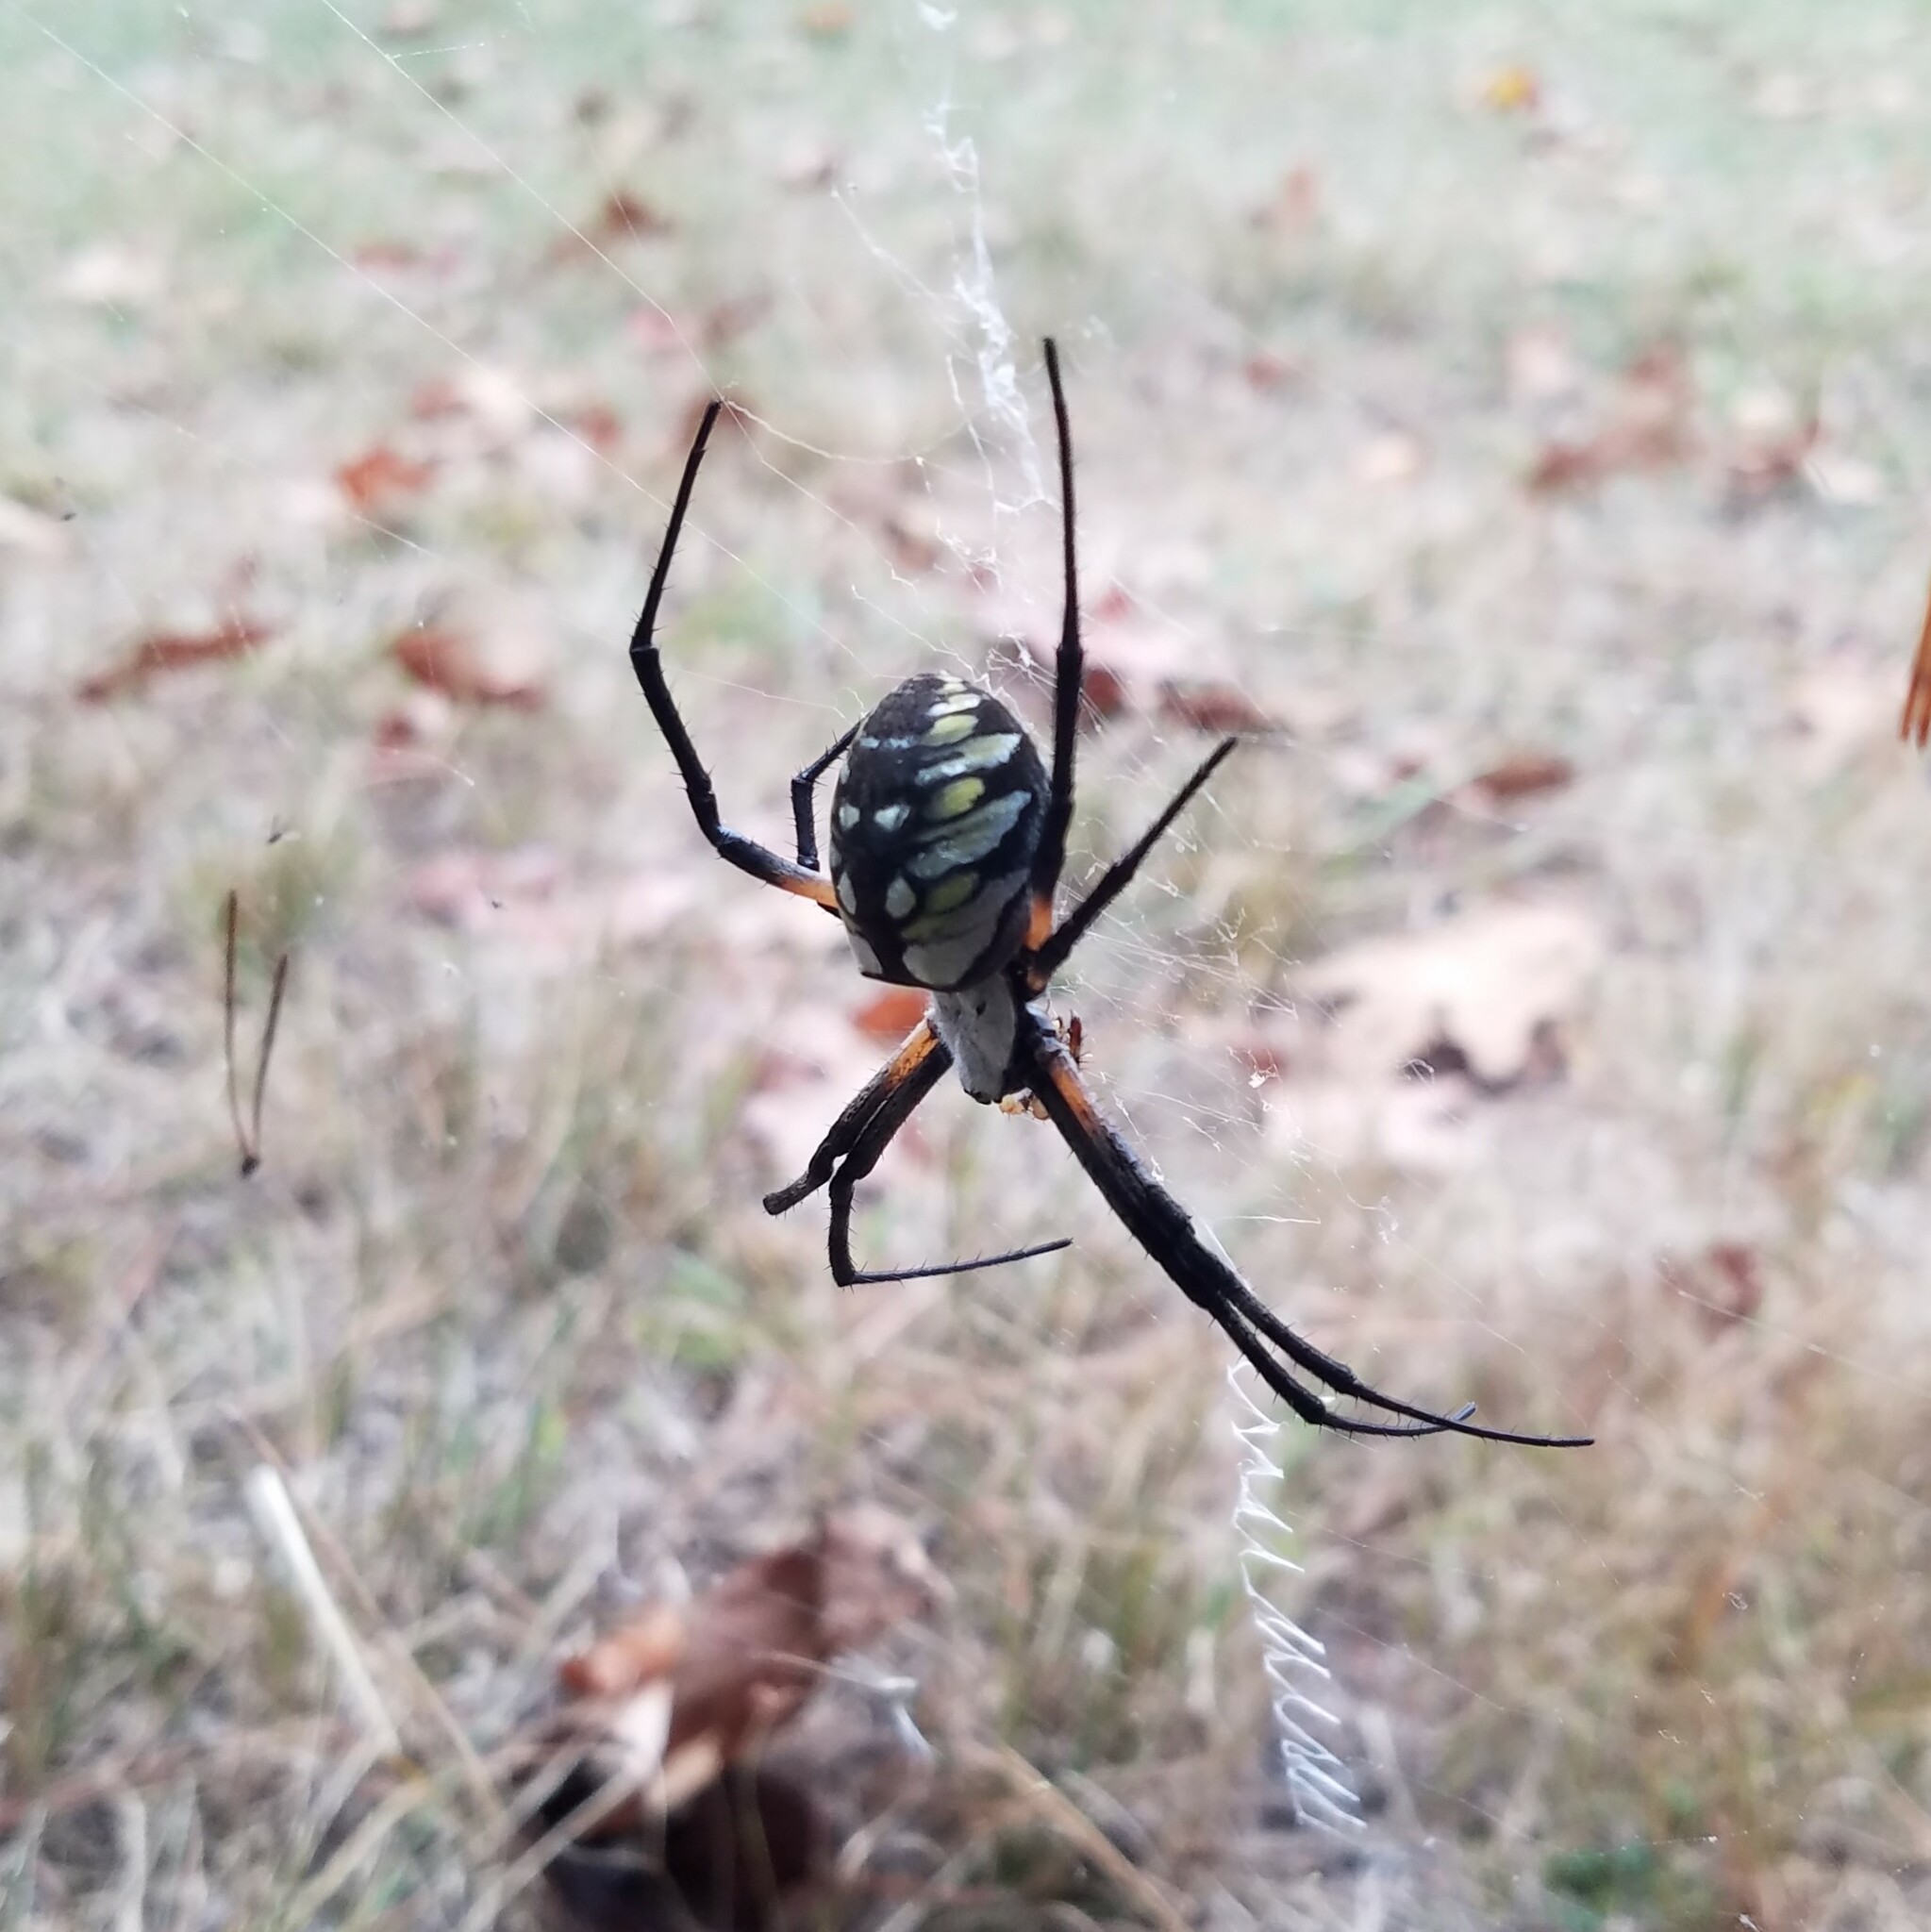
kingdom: Animalia
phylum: Arthropoda
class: Arachnida
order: Araneae
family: Araneidae
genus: Argiope
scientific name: Argiope aurantia
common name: Orb weavers
